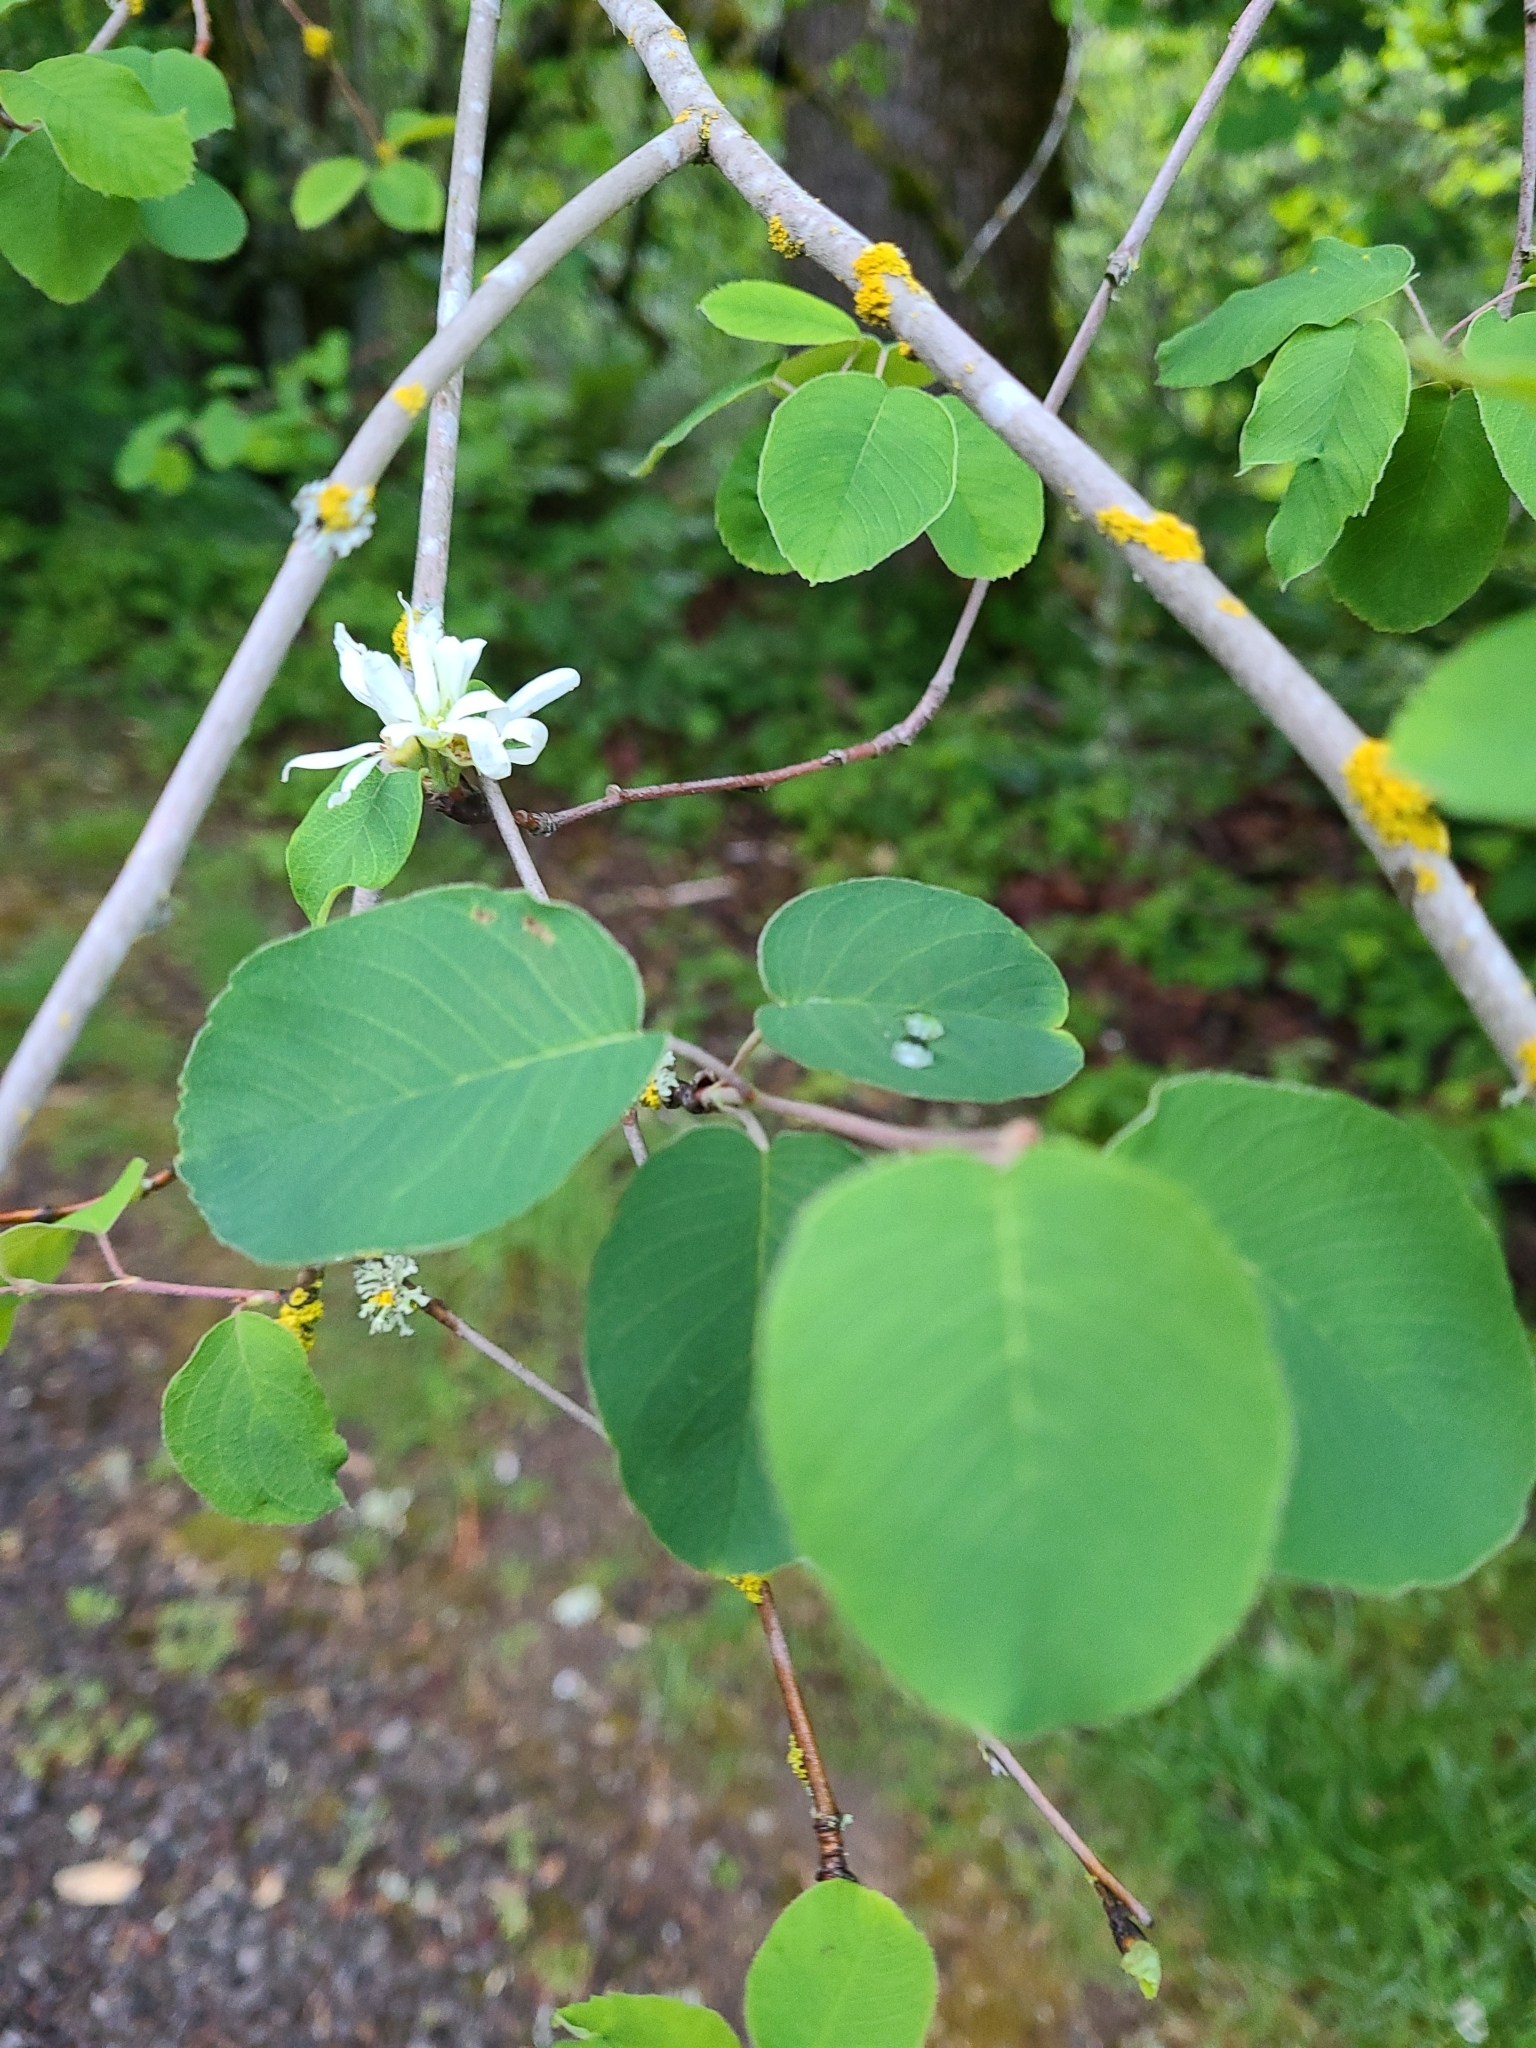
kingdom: Plantae
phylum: Tracheophyta
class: Magnoliopsida
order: Rosales
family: Rosaceae
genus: Amelanchier
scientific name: Amelanchier alnifolia
